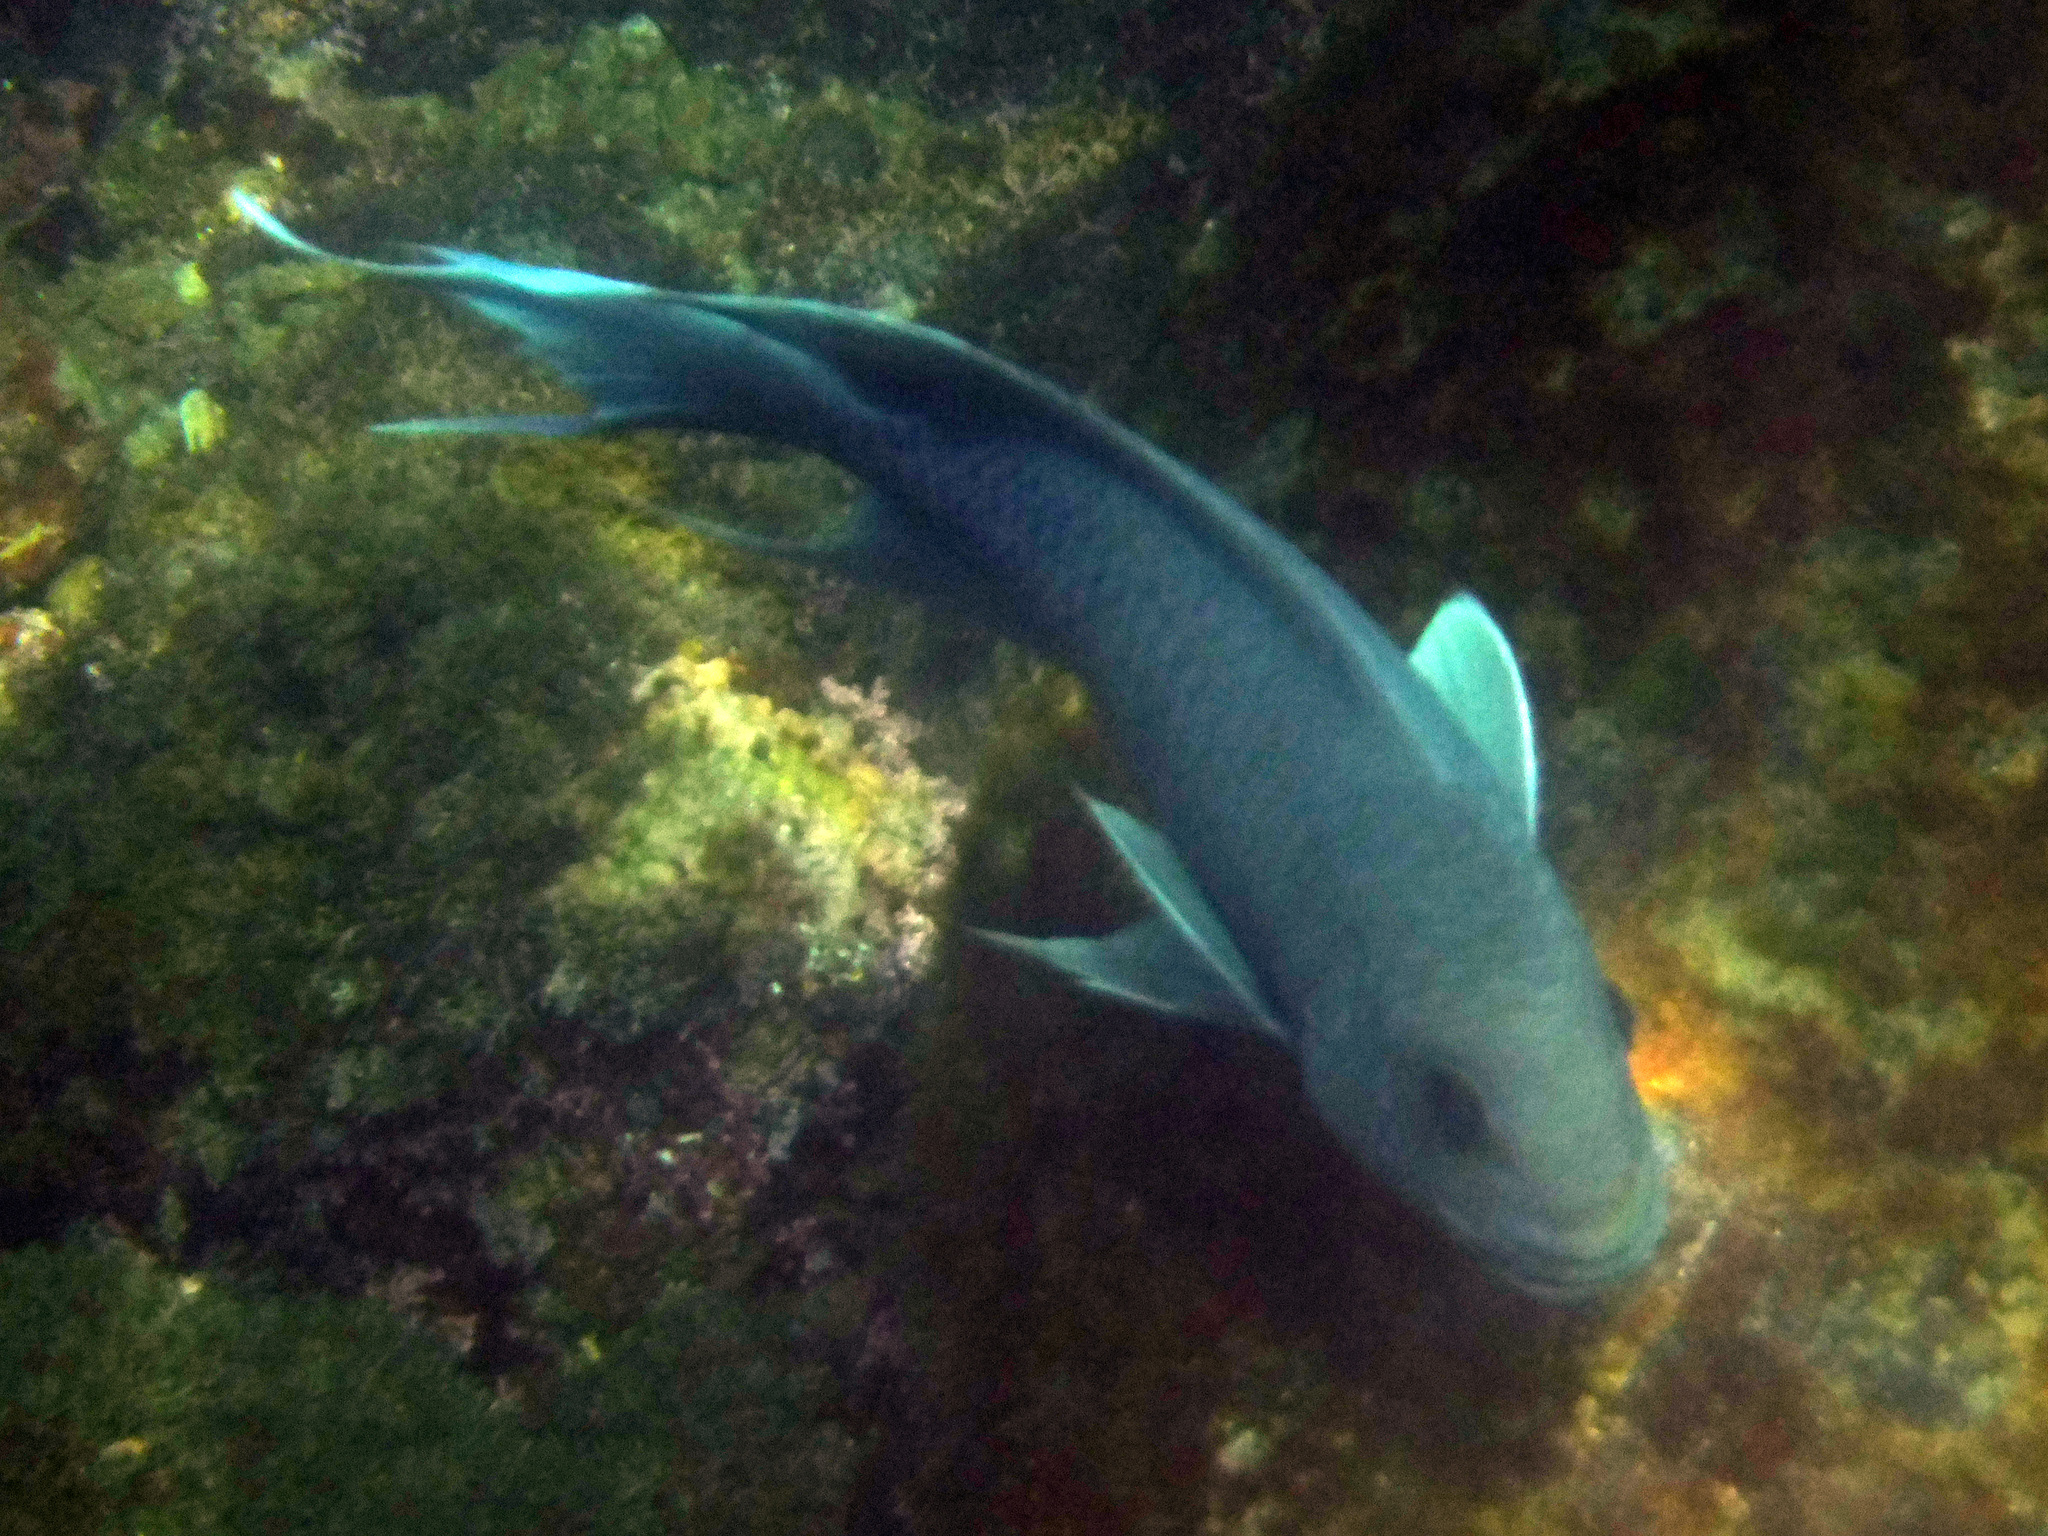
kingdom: Animalia
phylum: Chordata
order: Perciformes
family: Pomacentridae
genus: Microspathodon
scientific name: Microspathodon dorsalis
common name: Giant damselfish
